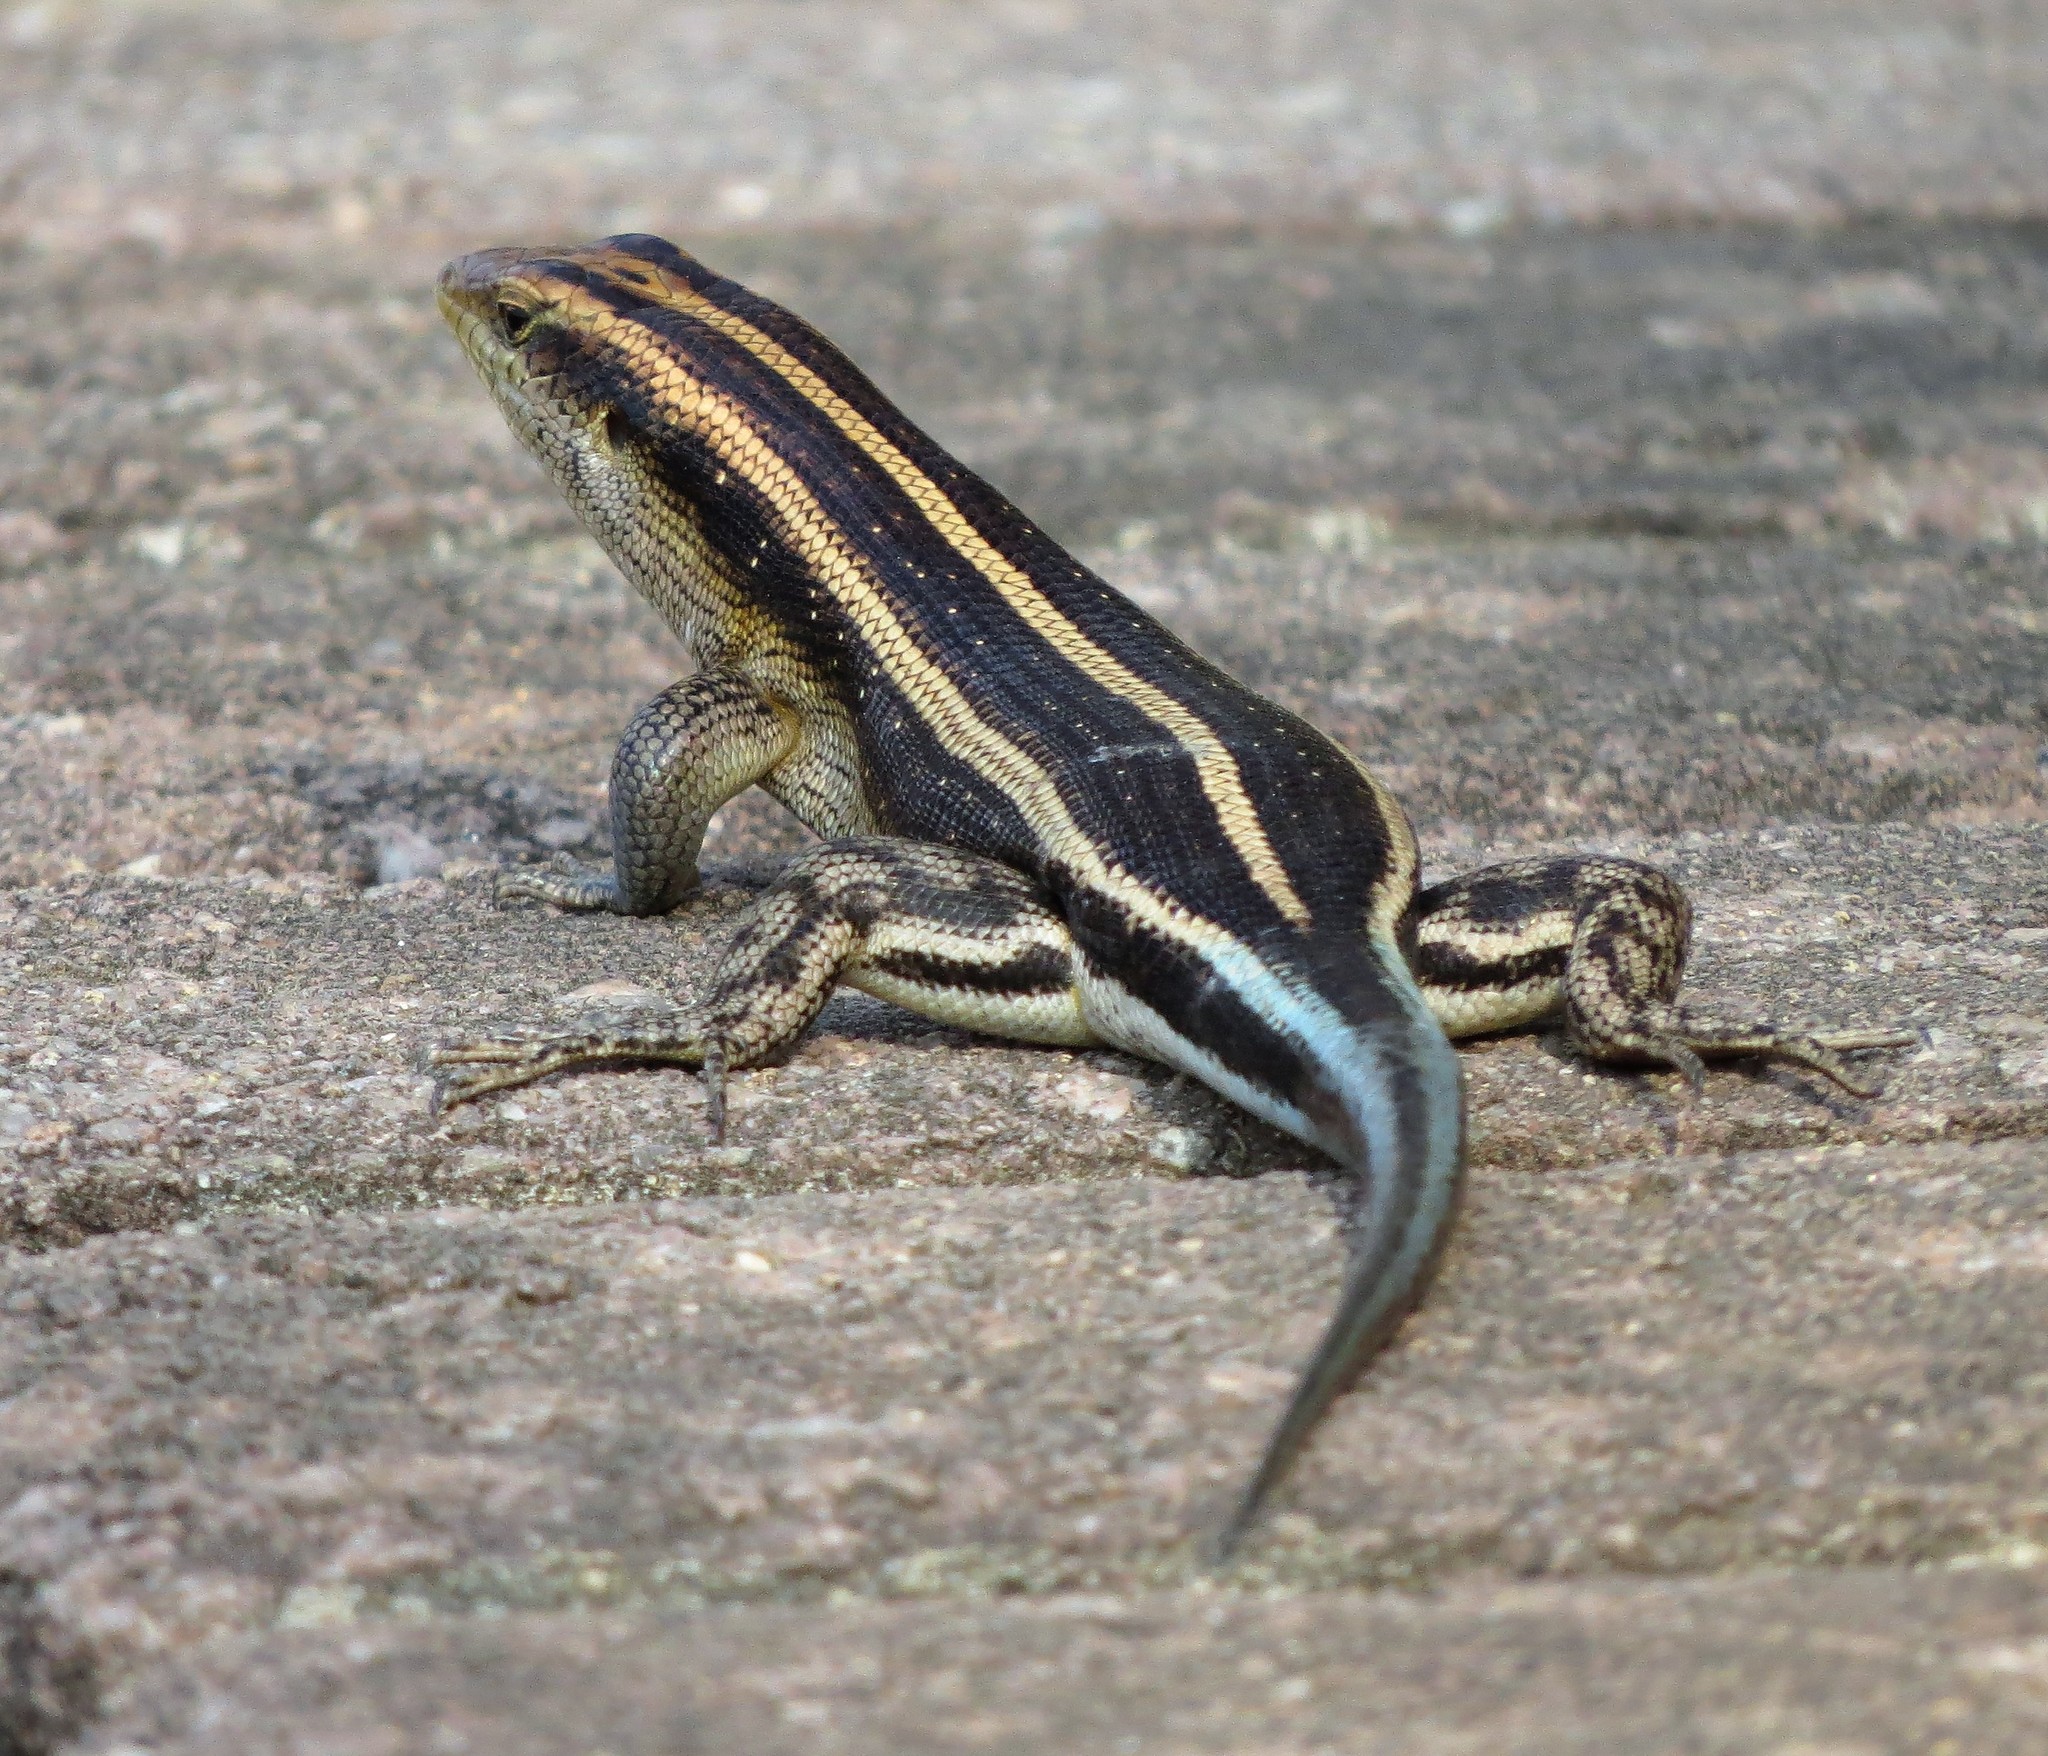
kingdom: Animalia
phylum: Chordata
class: Squamata
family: Scincidae
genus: Trachylepis
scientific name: Trachylepis margaritifera
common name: Rainbow skink
